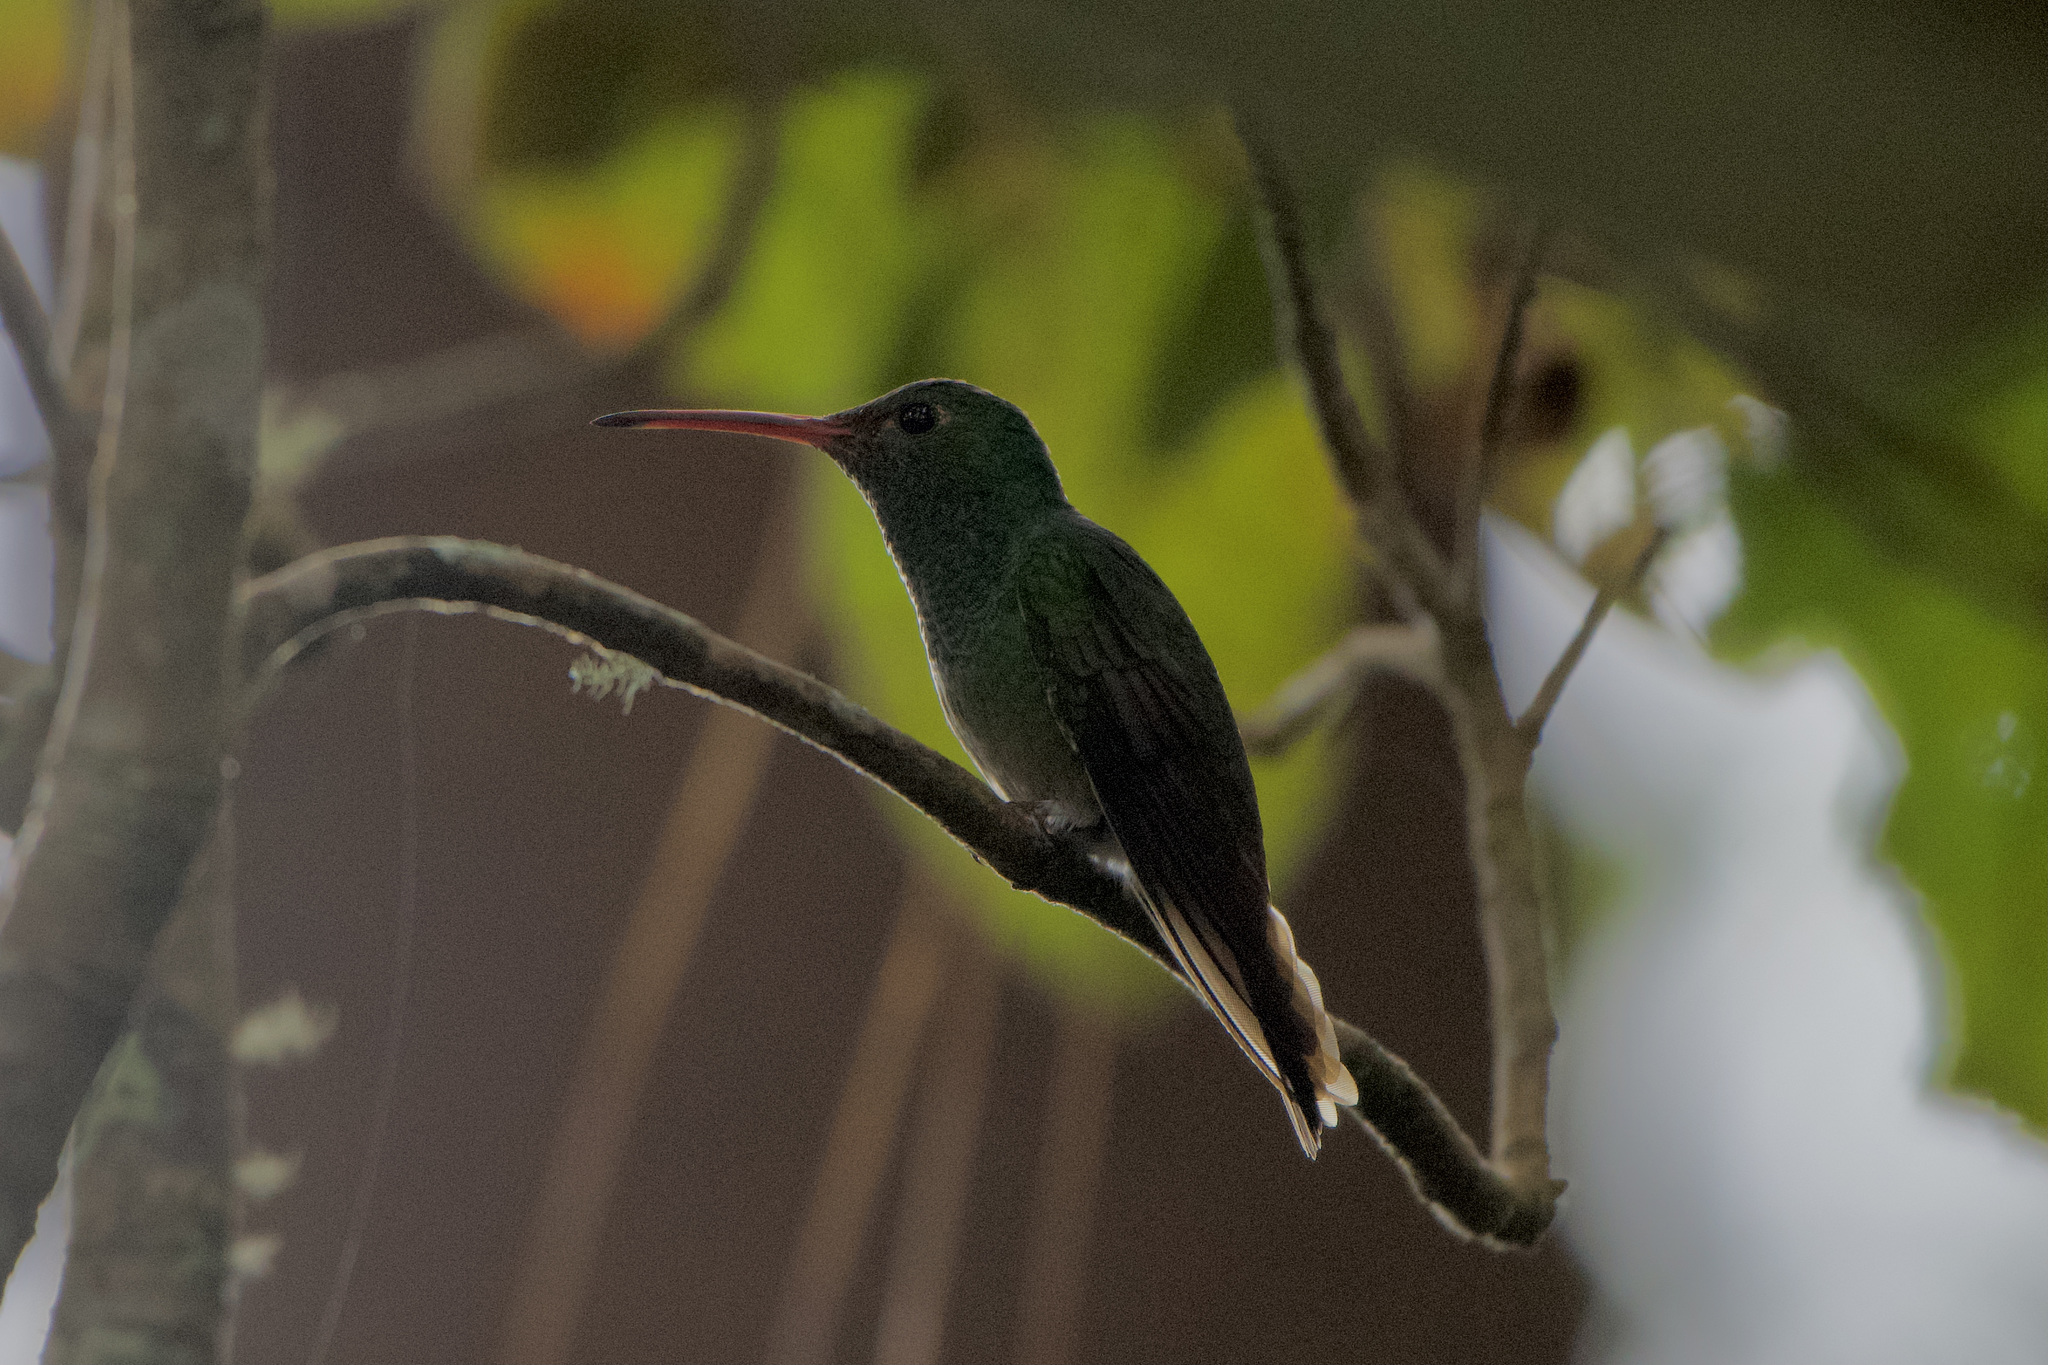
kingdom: Animalia
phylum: Chordata
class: Aves
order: Apodiformes
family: Trochilidae
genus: Amazilia
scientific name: Amazilia tzacatl
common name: Rufous-tailed hummingbird
